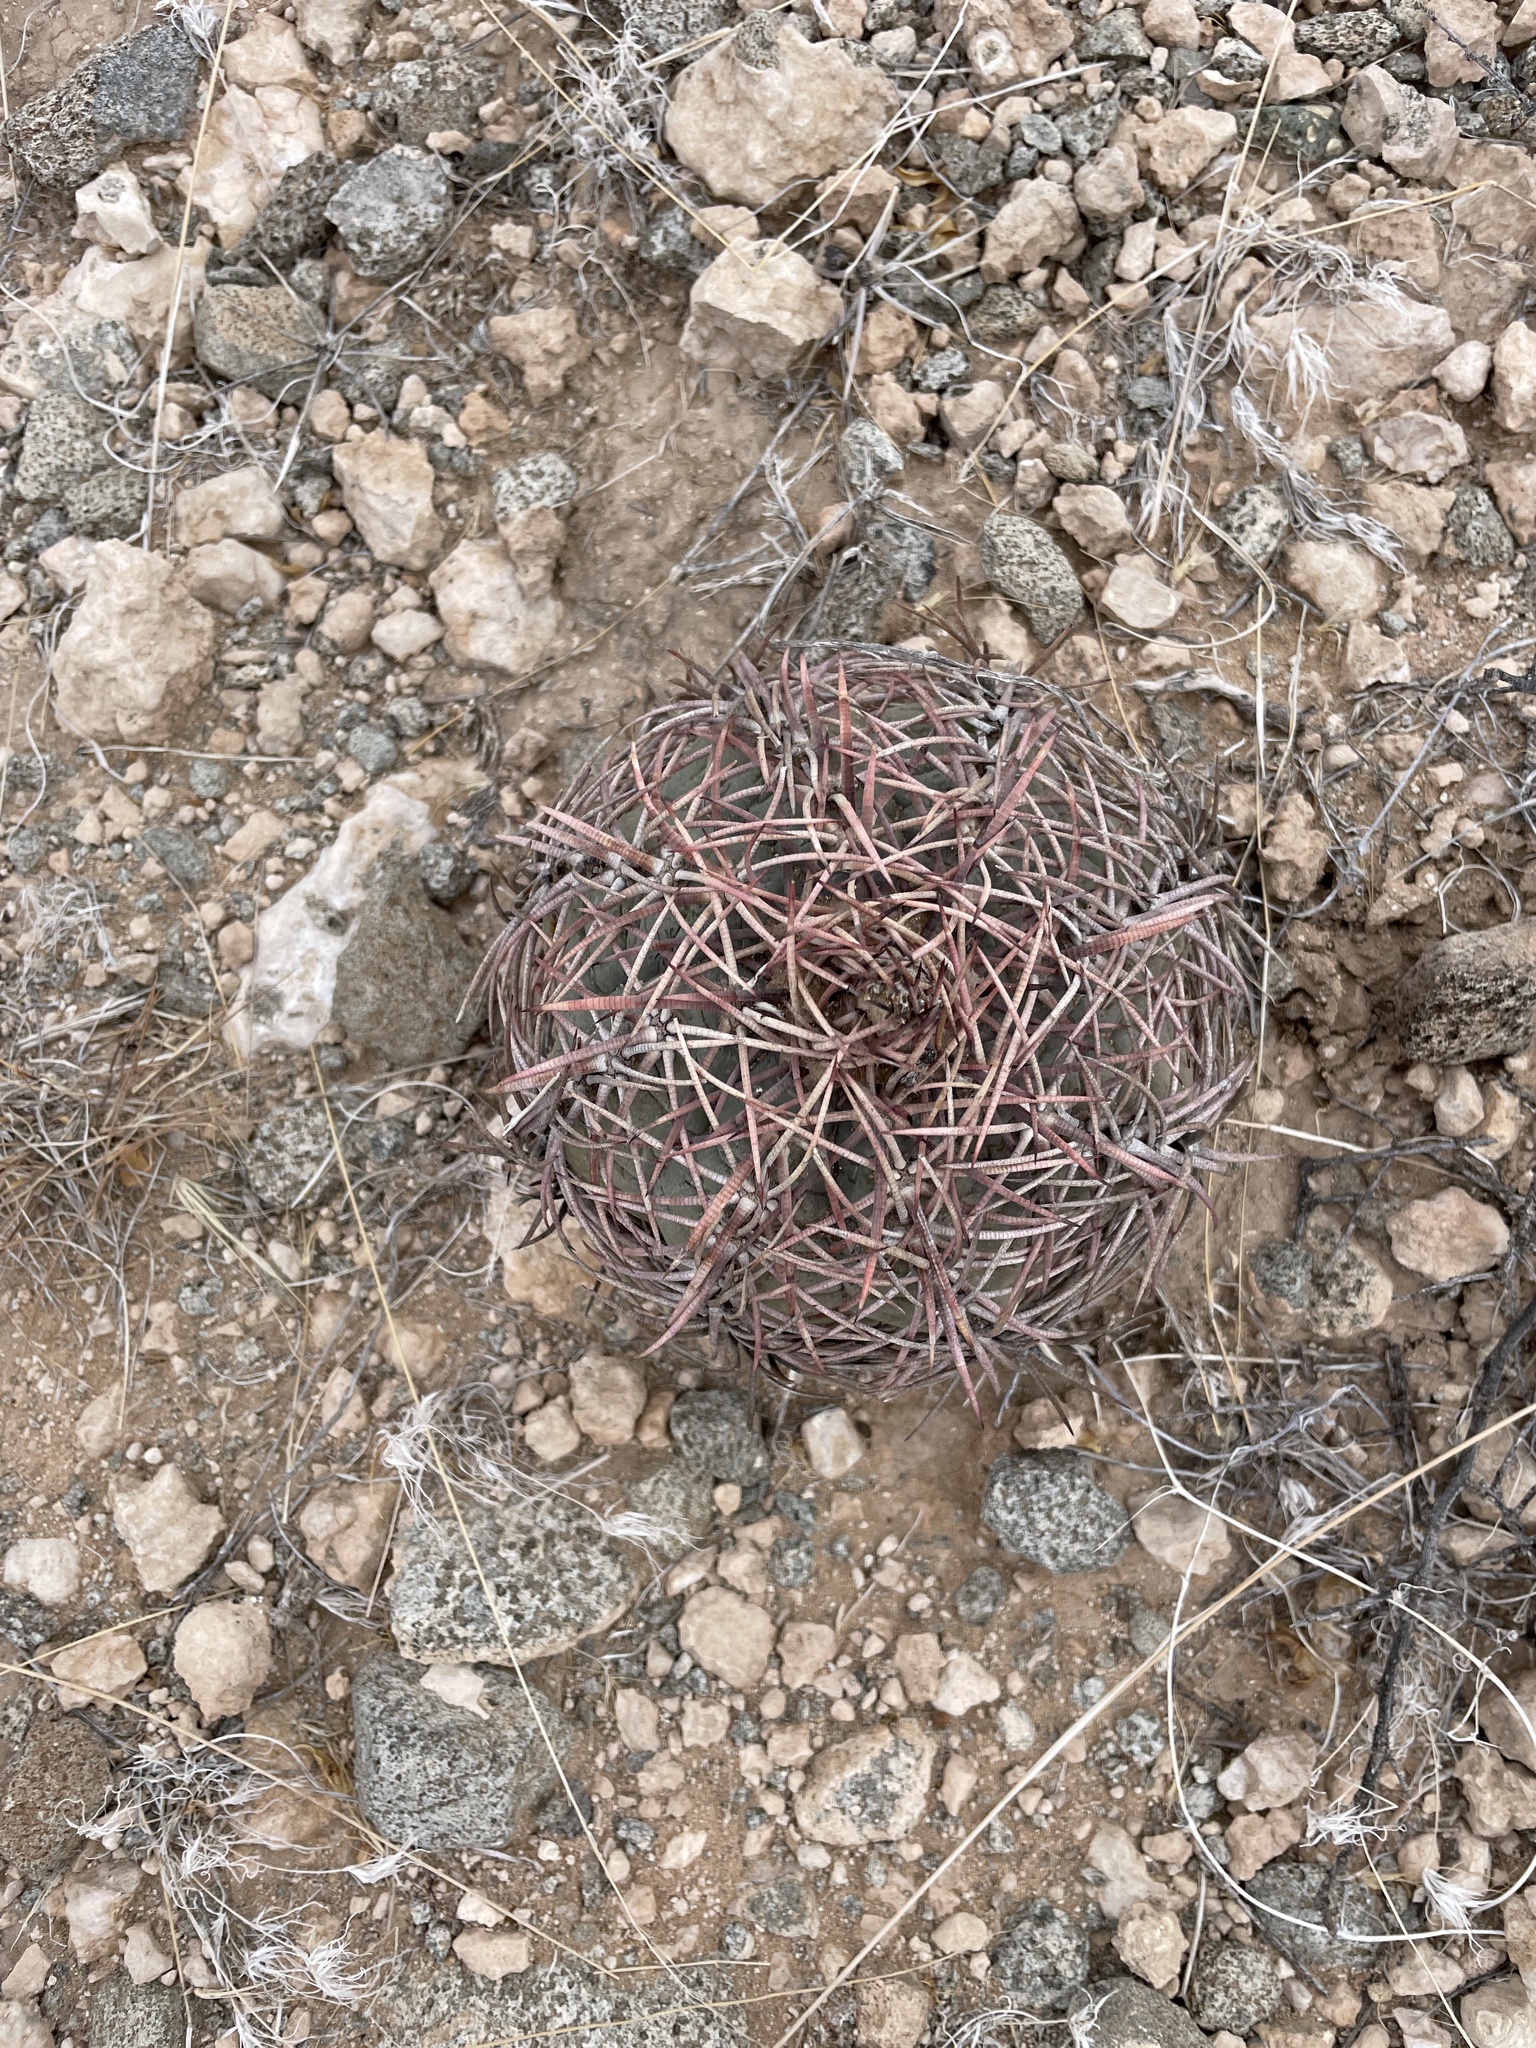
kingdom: Plantae
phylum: Tracheophyta
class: Magnoliopsida
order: Caryophyllales
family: Cactaceae
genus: Echinocactus
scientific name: Echinocactus horizonthalonius
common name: Devilshead
